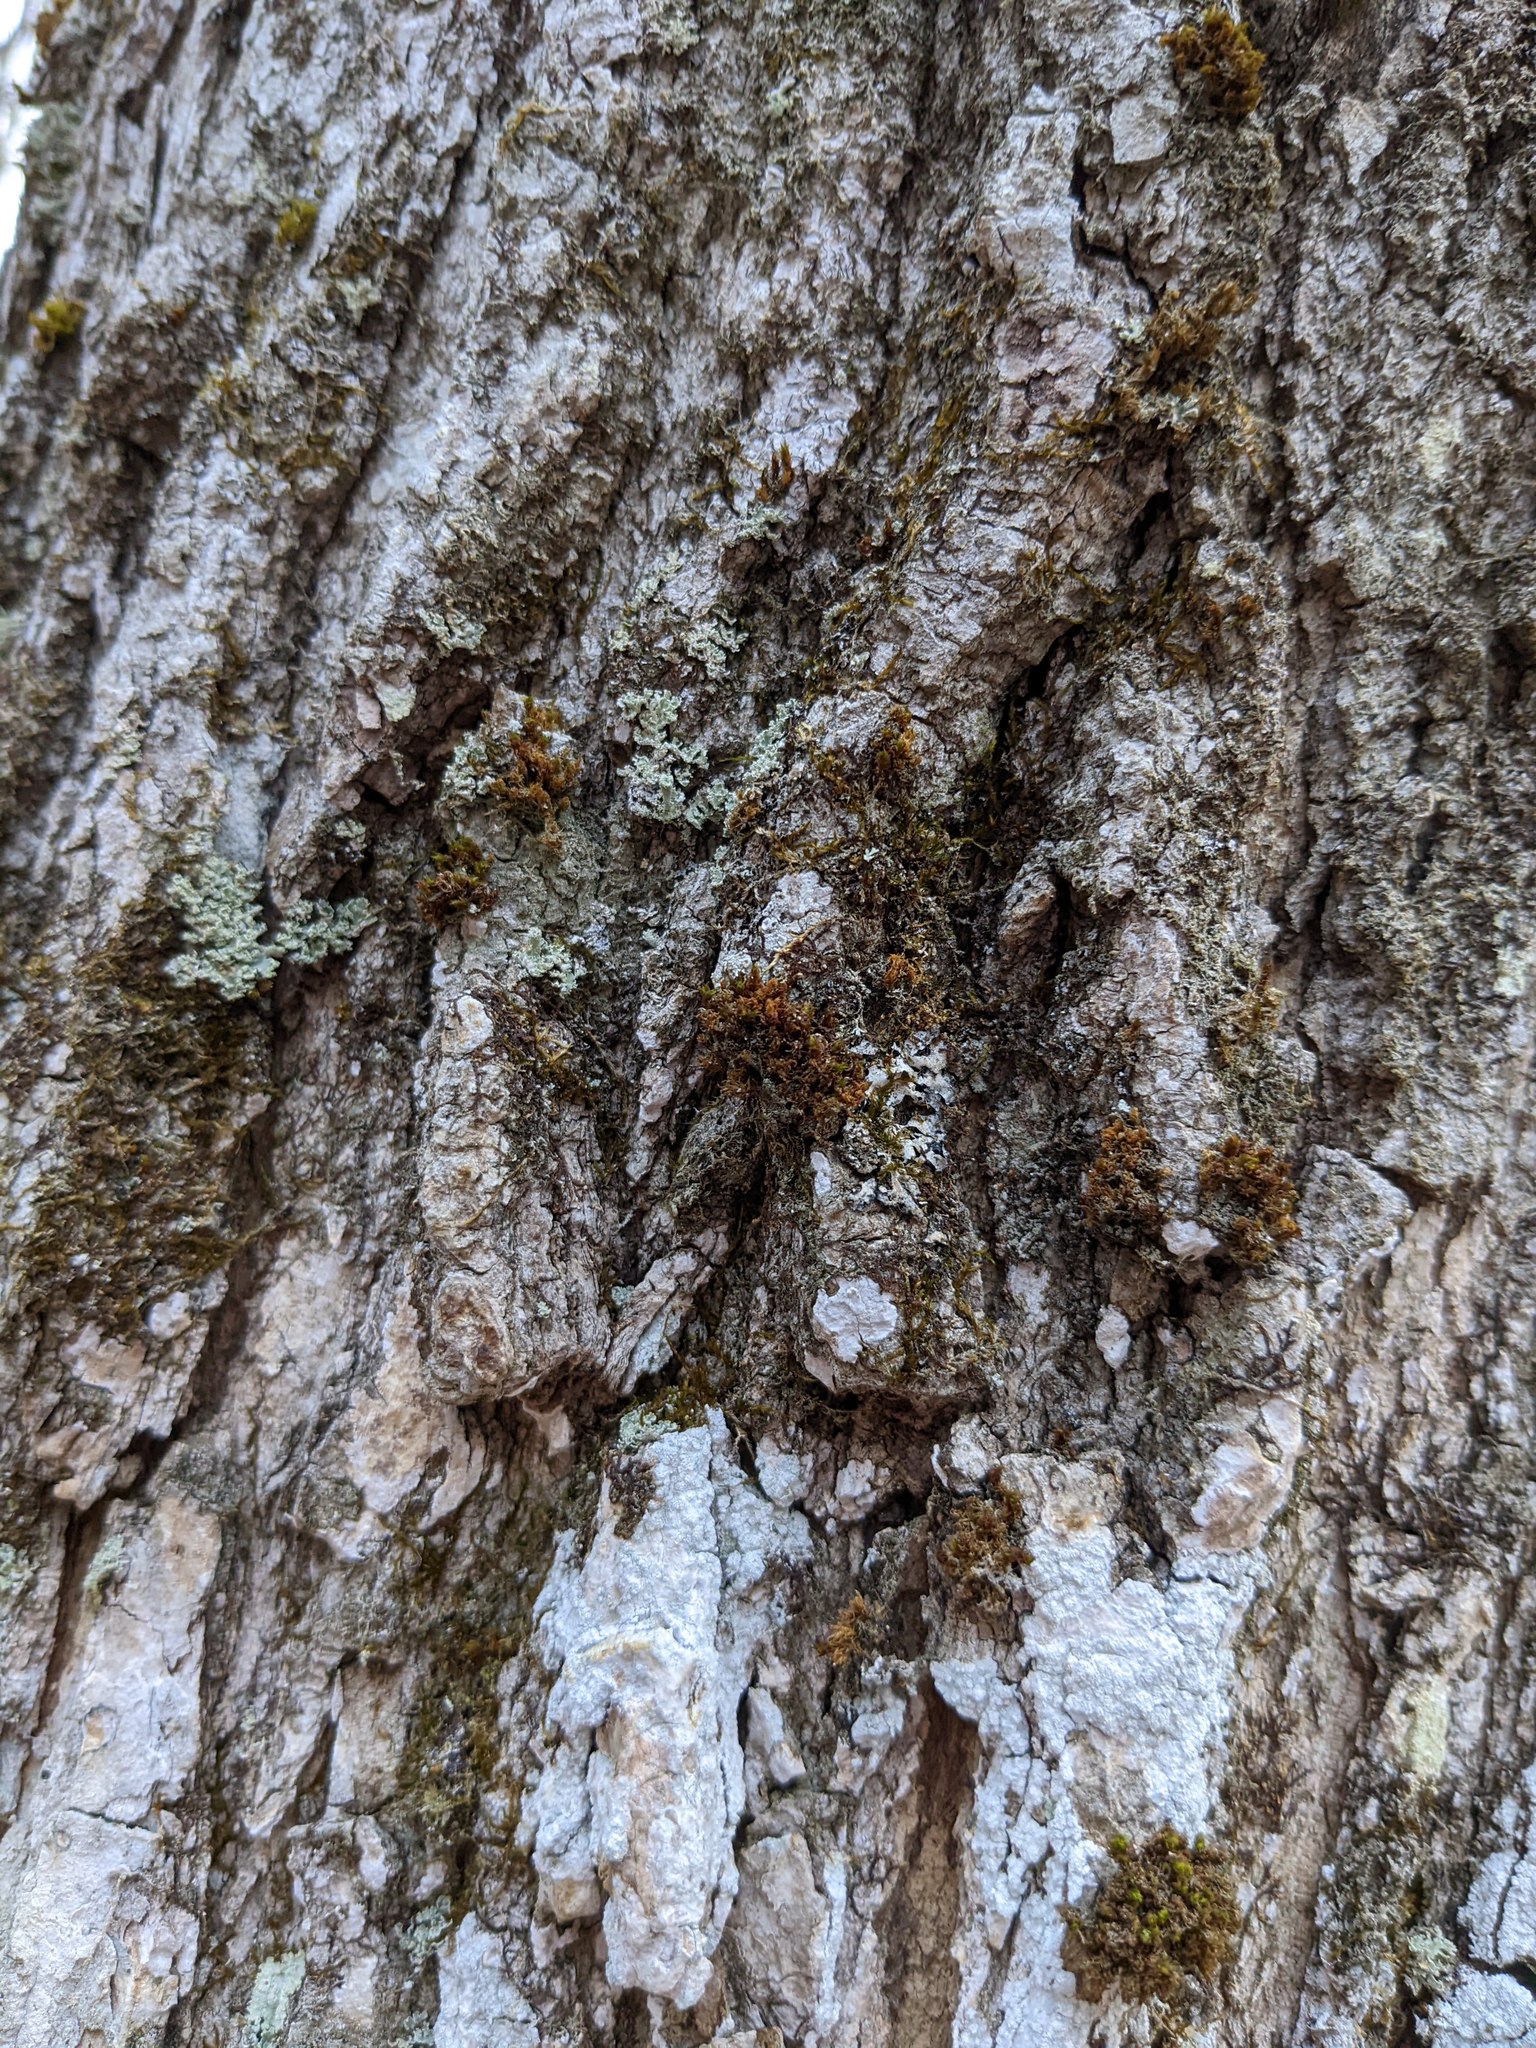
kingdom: Plantae
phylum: Bryophyta
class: Bryopsida
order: Orthotrichales
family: Orthotrichaceae
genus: Ulota
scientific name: Ulota crispa
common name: Crisped pincushion moss
